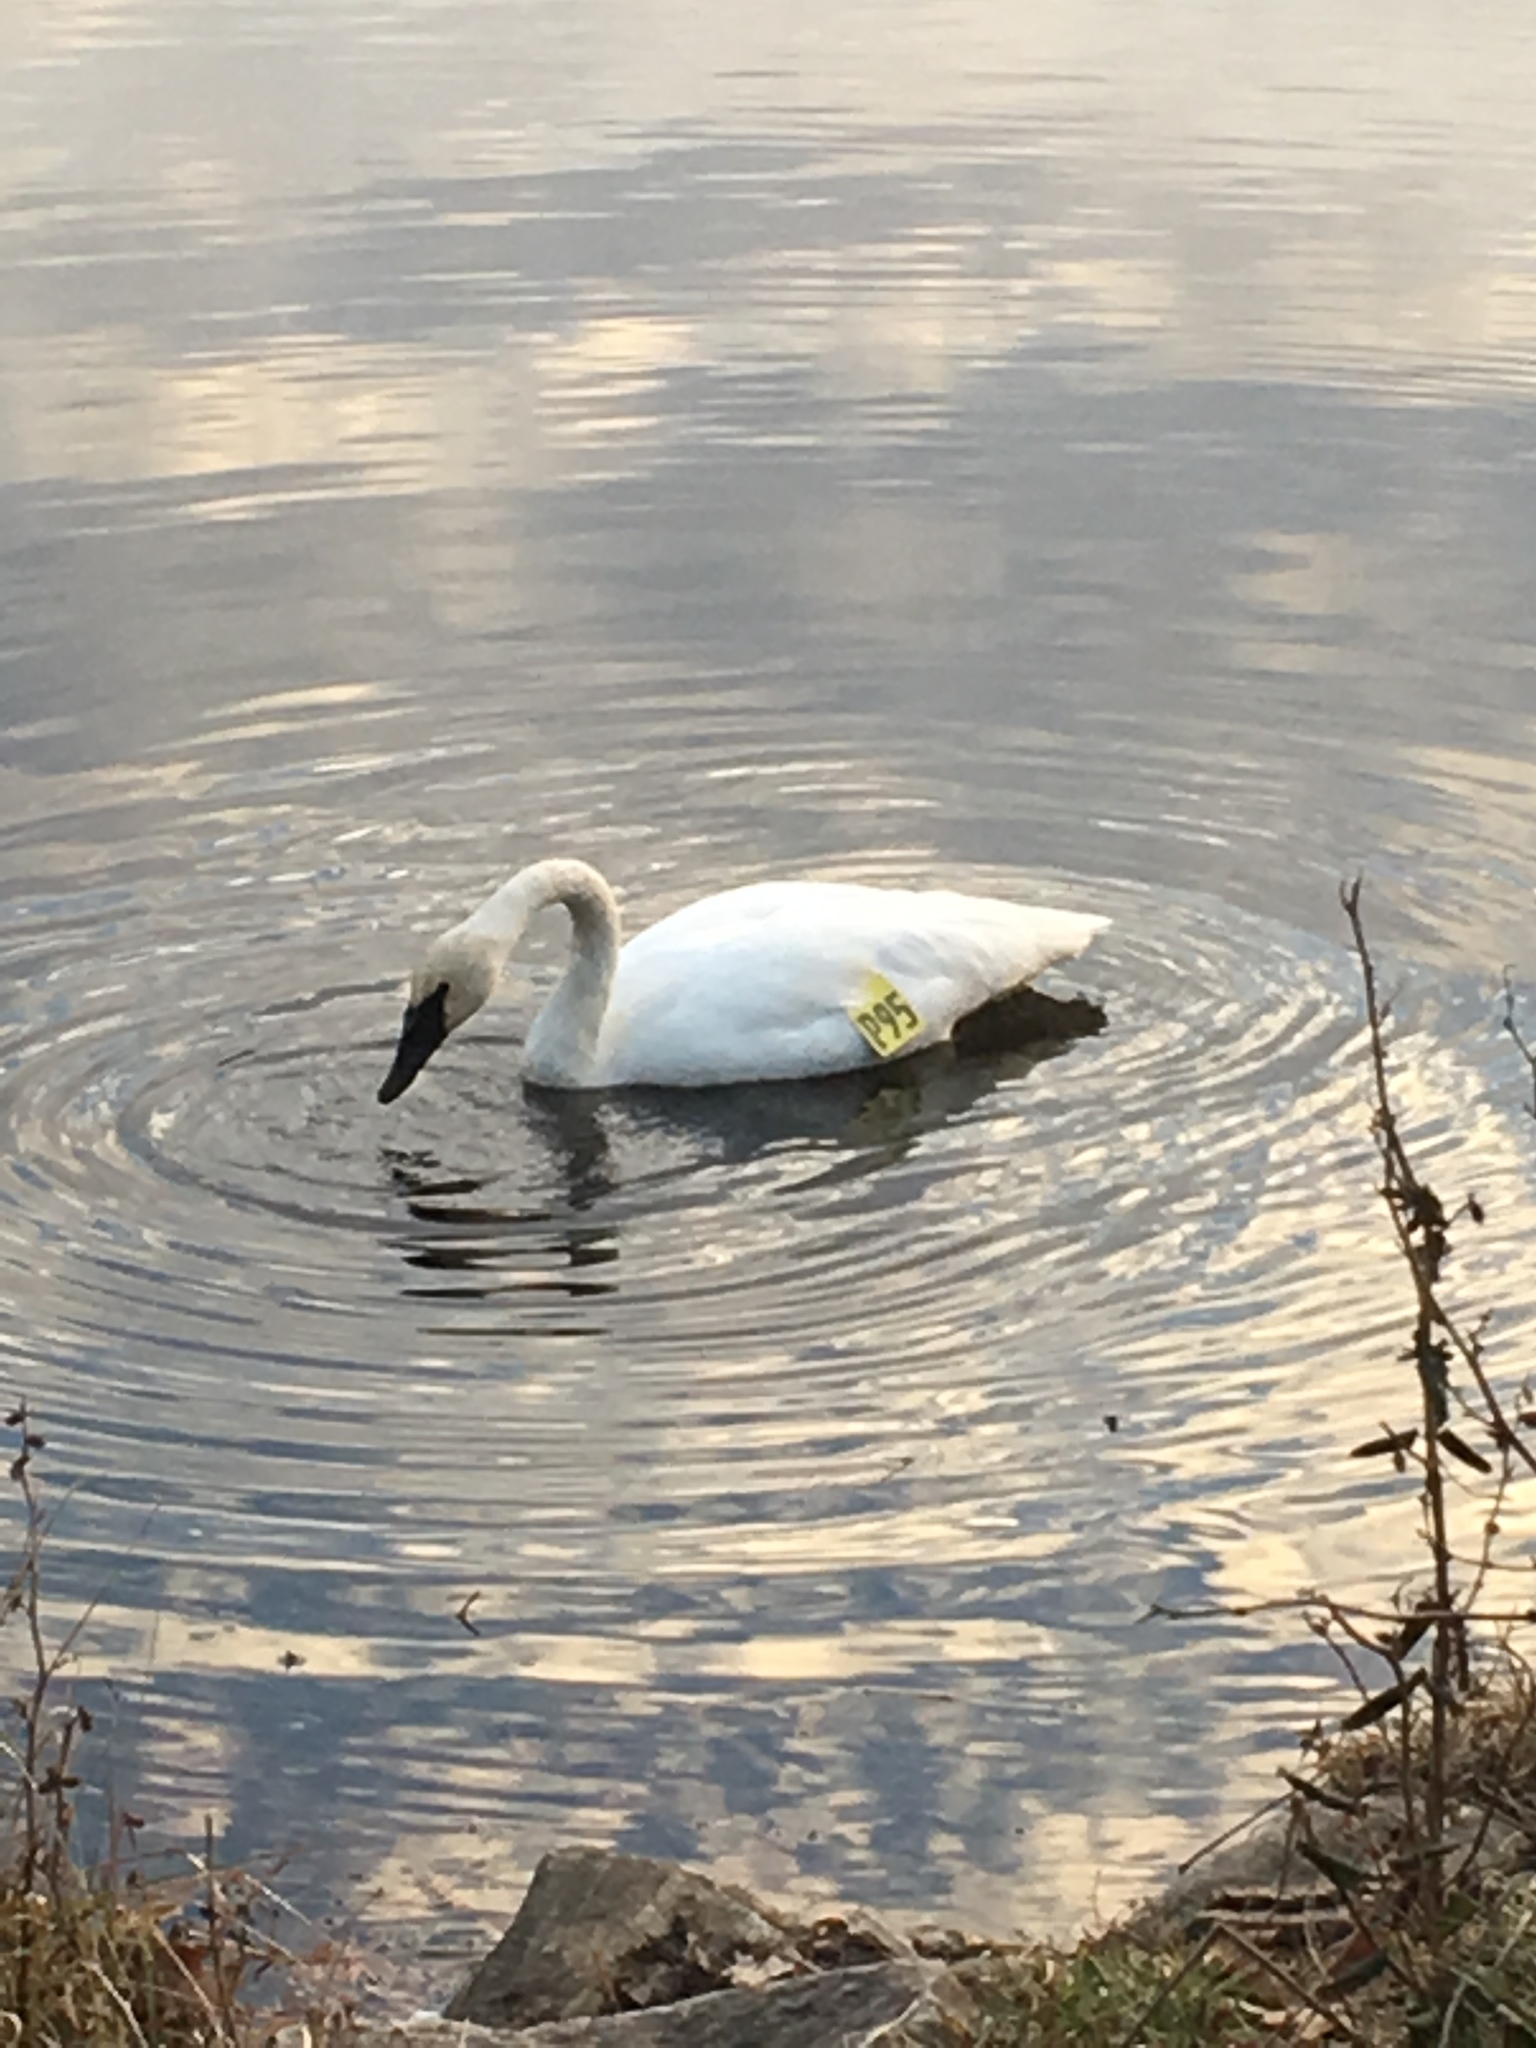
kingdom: Animalia
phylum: Chordata
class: Aves
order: Anseriformes
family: Anatidae
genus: Cygnus
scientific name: Cygnus buccinator
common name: Trumpeter swan
